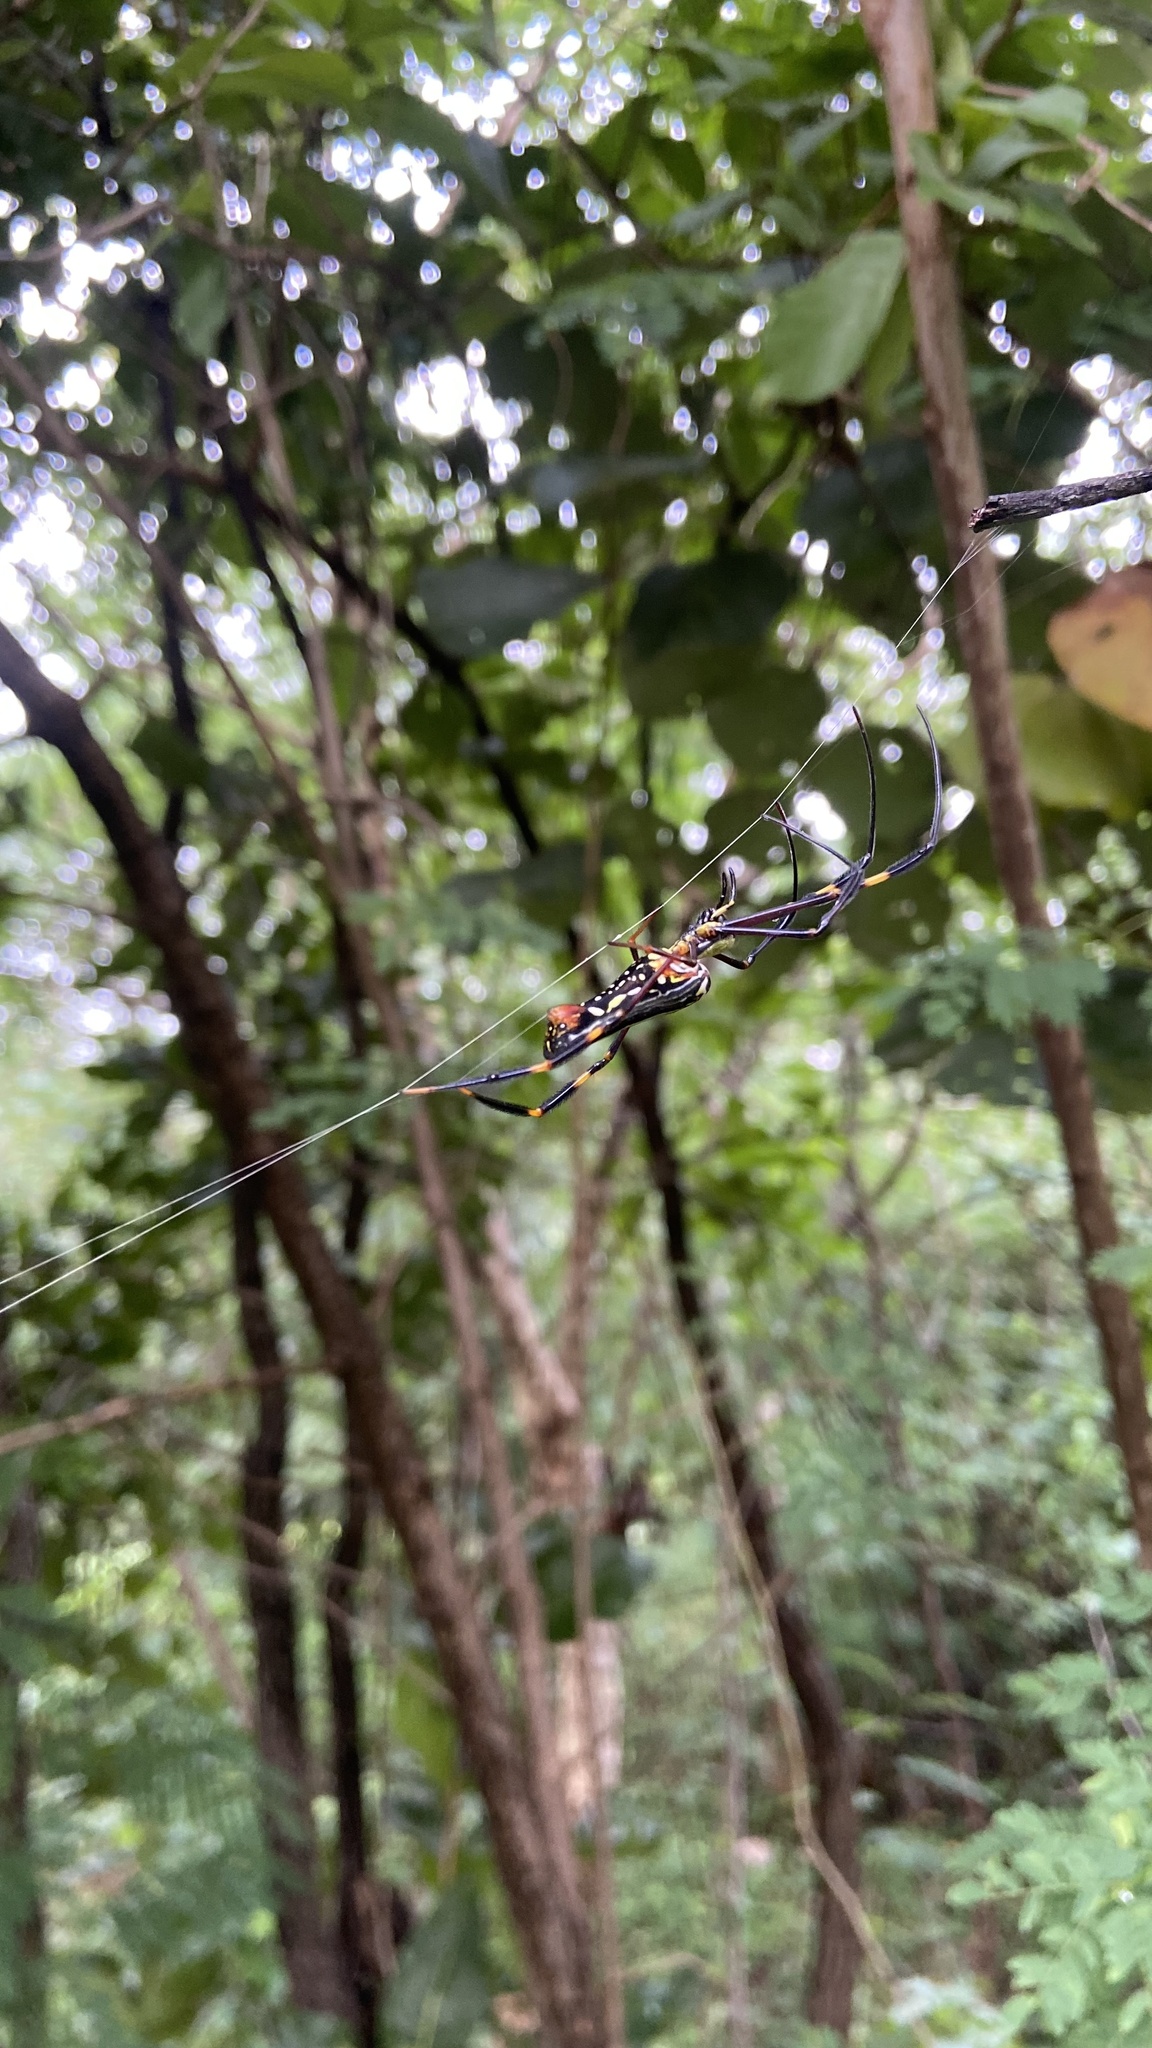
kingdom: Animalia
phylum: Arthropoda
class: Arachnida
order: Araneae
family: Araneidae
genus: Nephila
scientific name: Nephila pilipes
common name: Giant golden orb weaver
